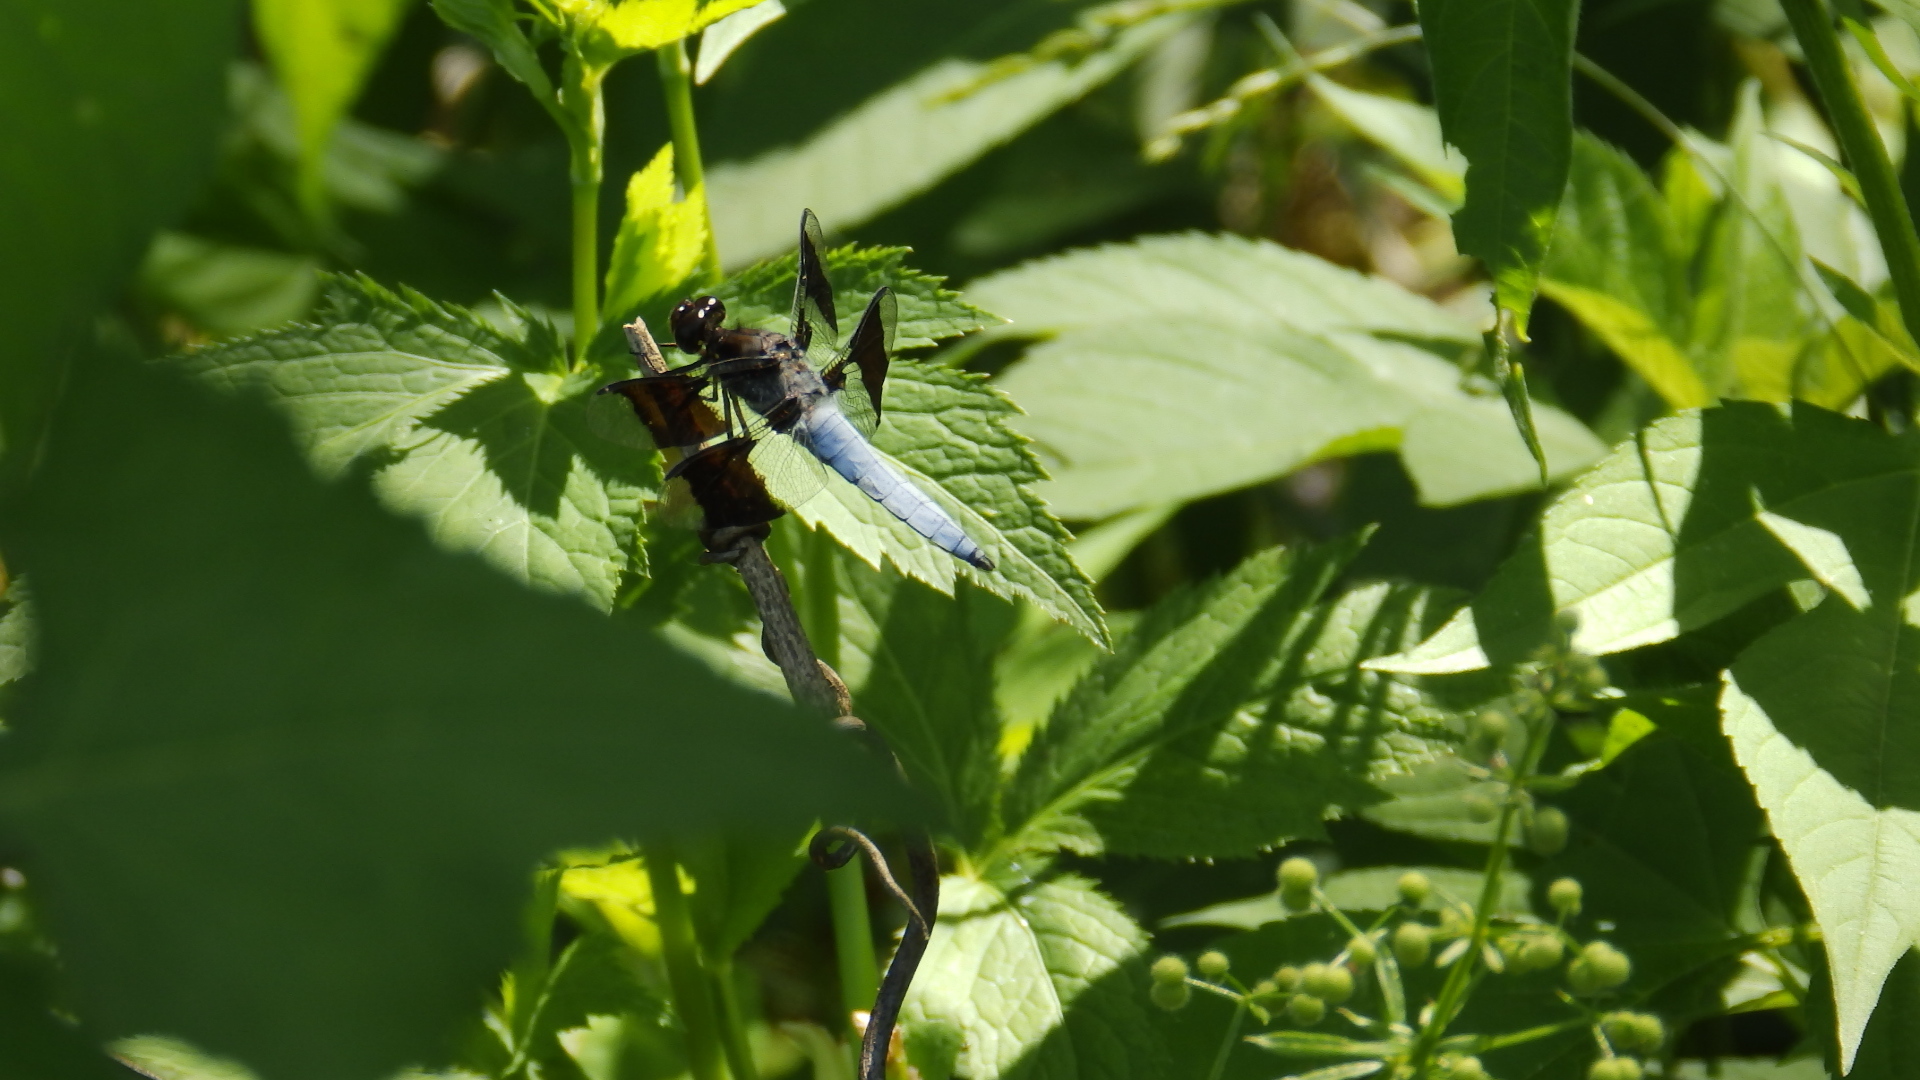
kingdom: Animalia
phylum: Arthropoda
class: Insecta
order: Odonata
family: Libellulidae
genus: Plathemis
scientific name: Plathemis lydia
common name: Common whitetail
